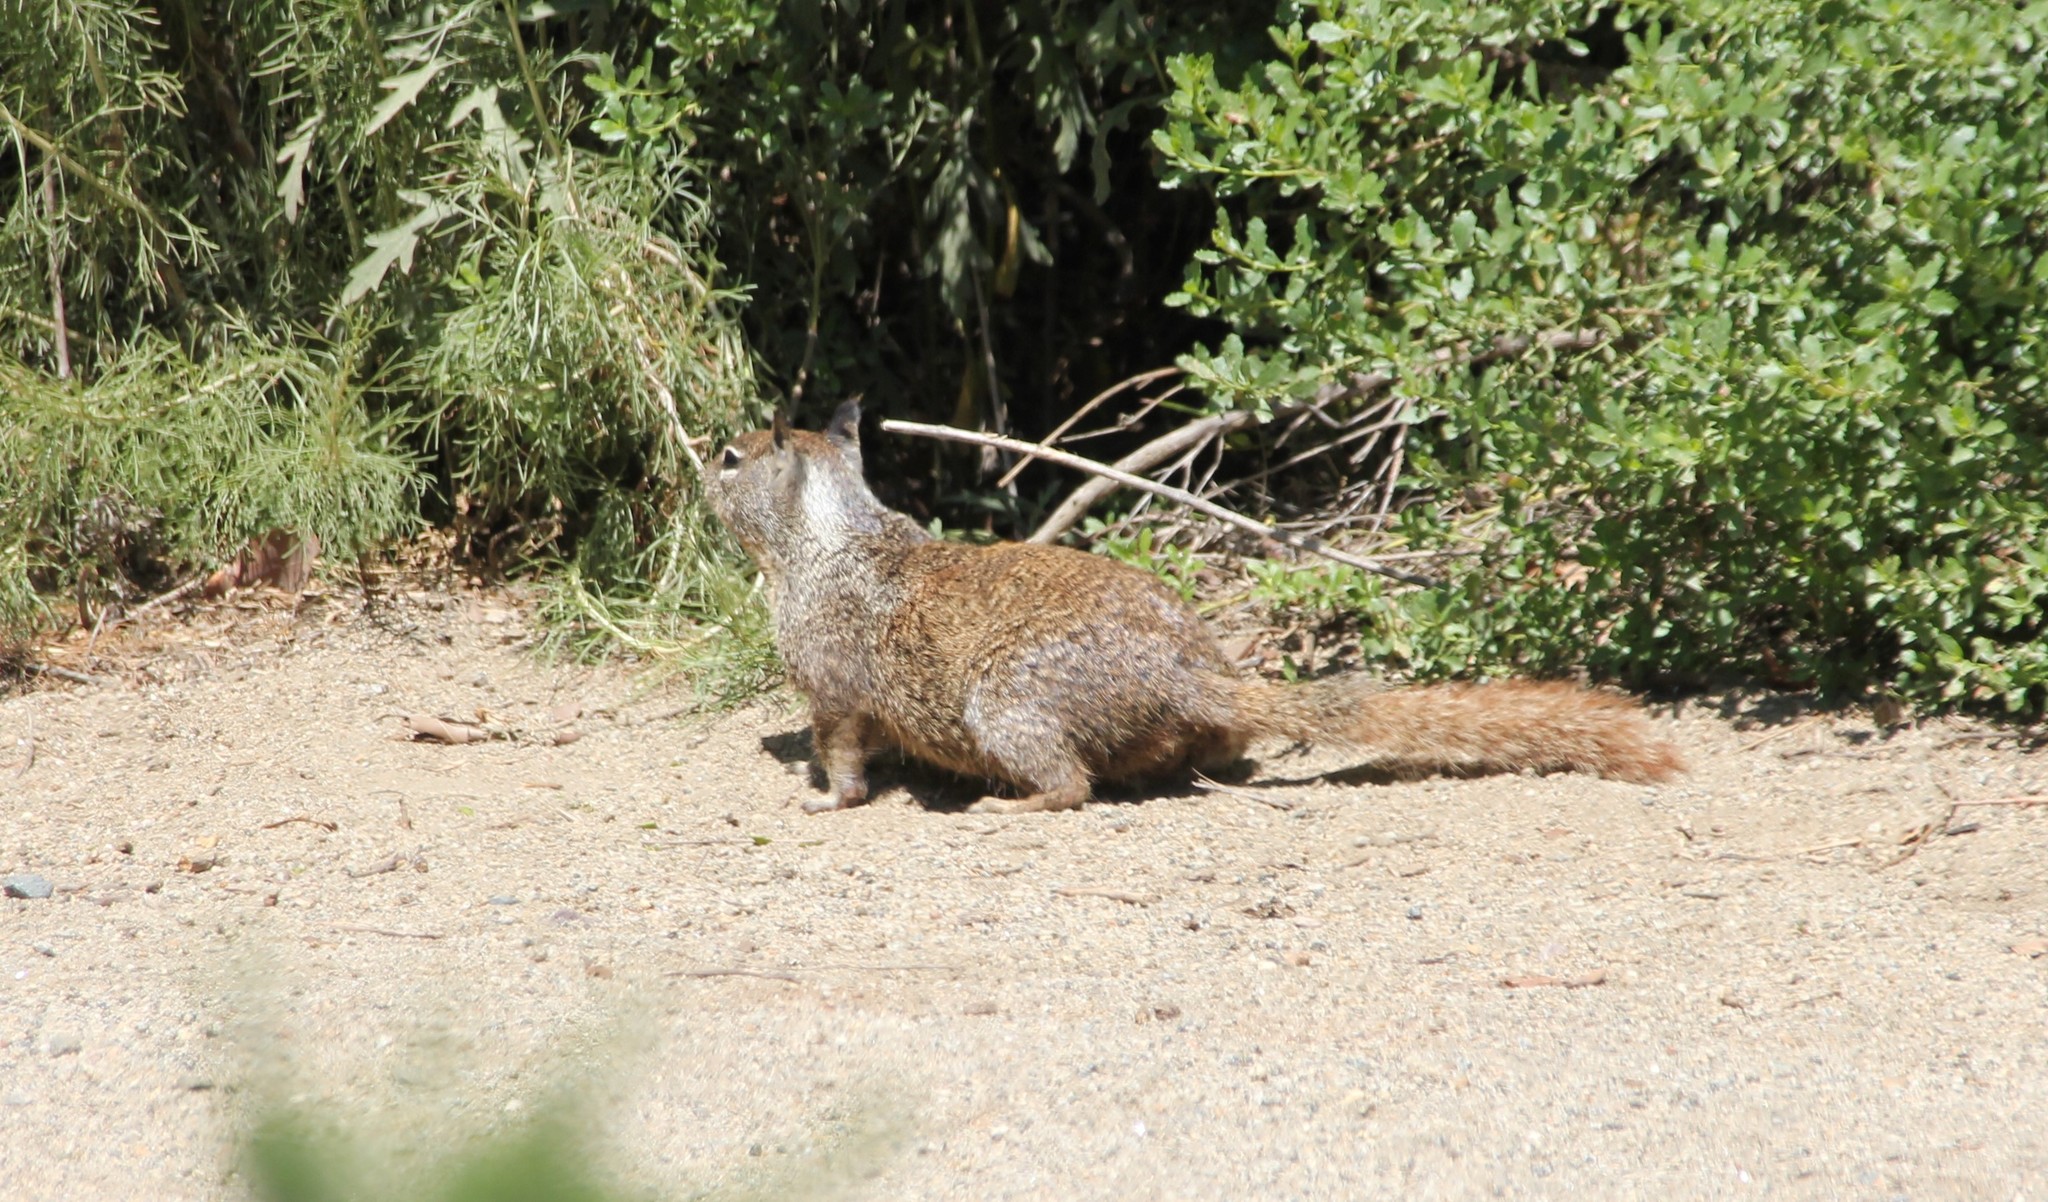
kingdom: Animalia
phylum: Chordata
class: Mammalia
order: Rodentia
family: Sciuridae
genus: Otospermophilus
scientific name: Otospermophilus beecheyi
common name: California ground squirrel
